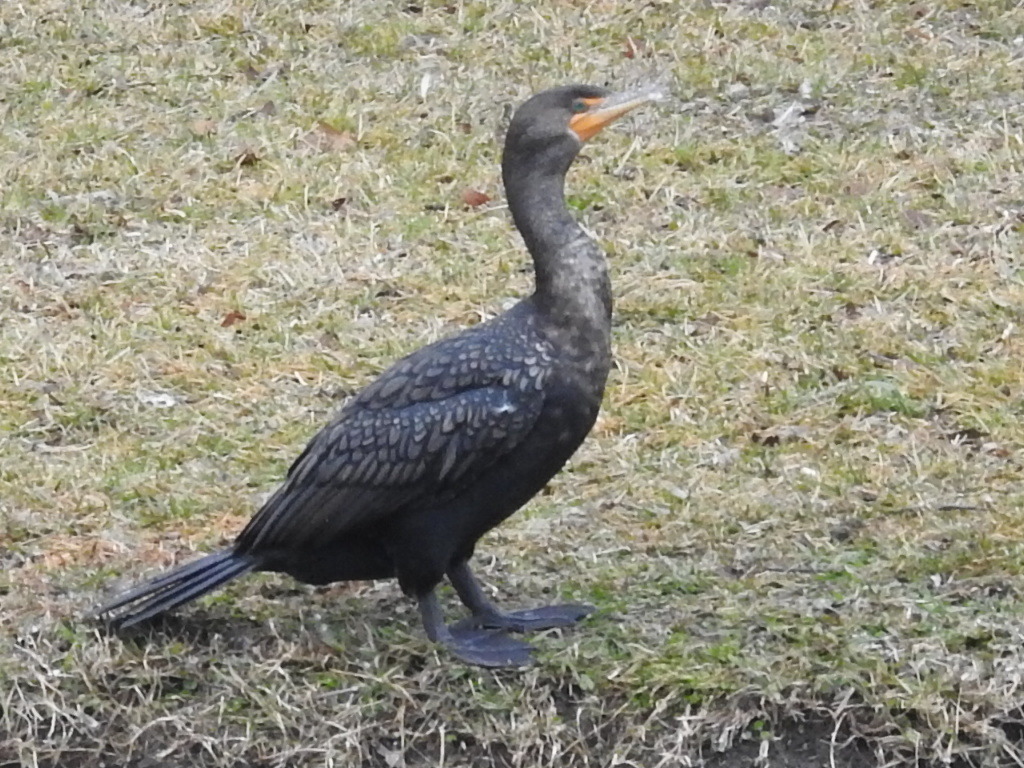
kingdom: Animalia
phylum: Chordata
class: Aves
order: Suliformes
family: Phalacrocoracidae
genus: Phalacrocorax
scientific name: Phalacrocorax auritus
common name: Double-crested cormorant
